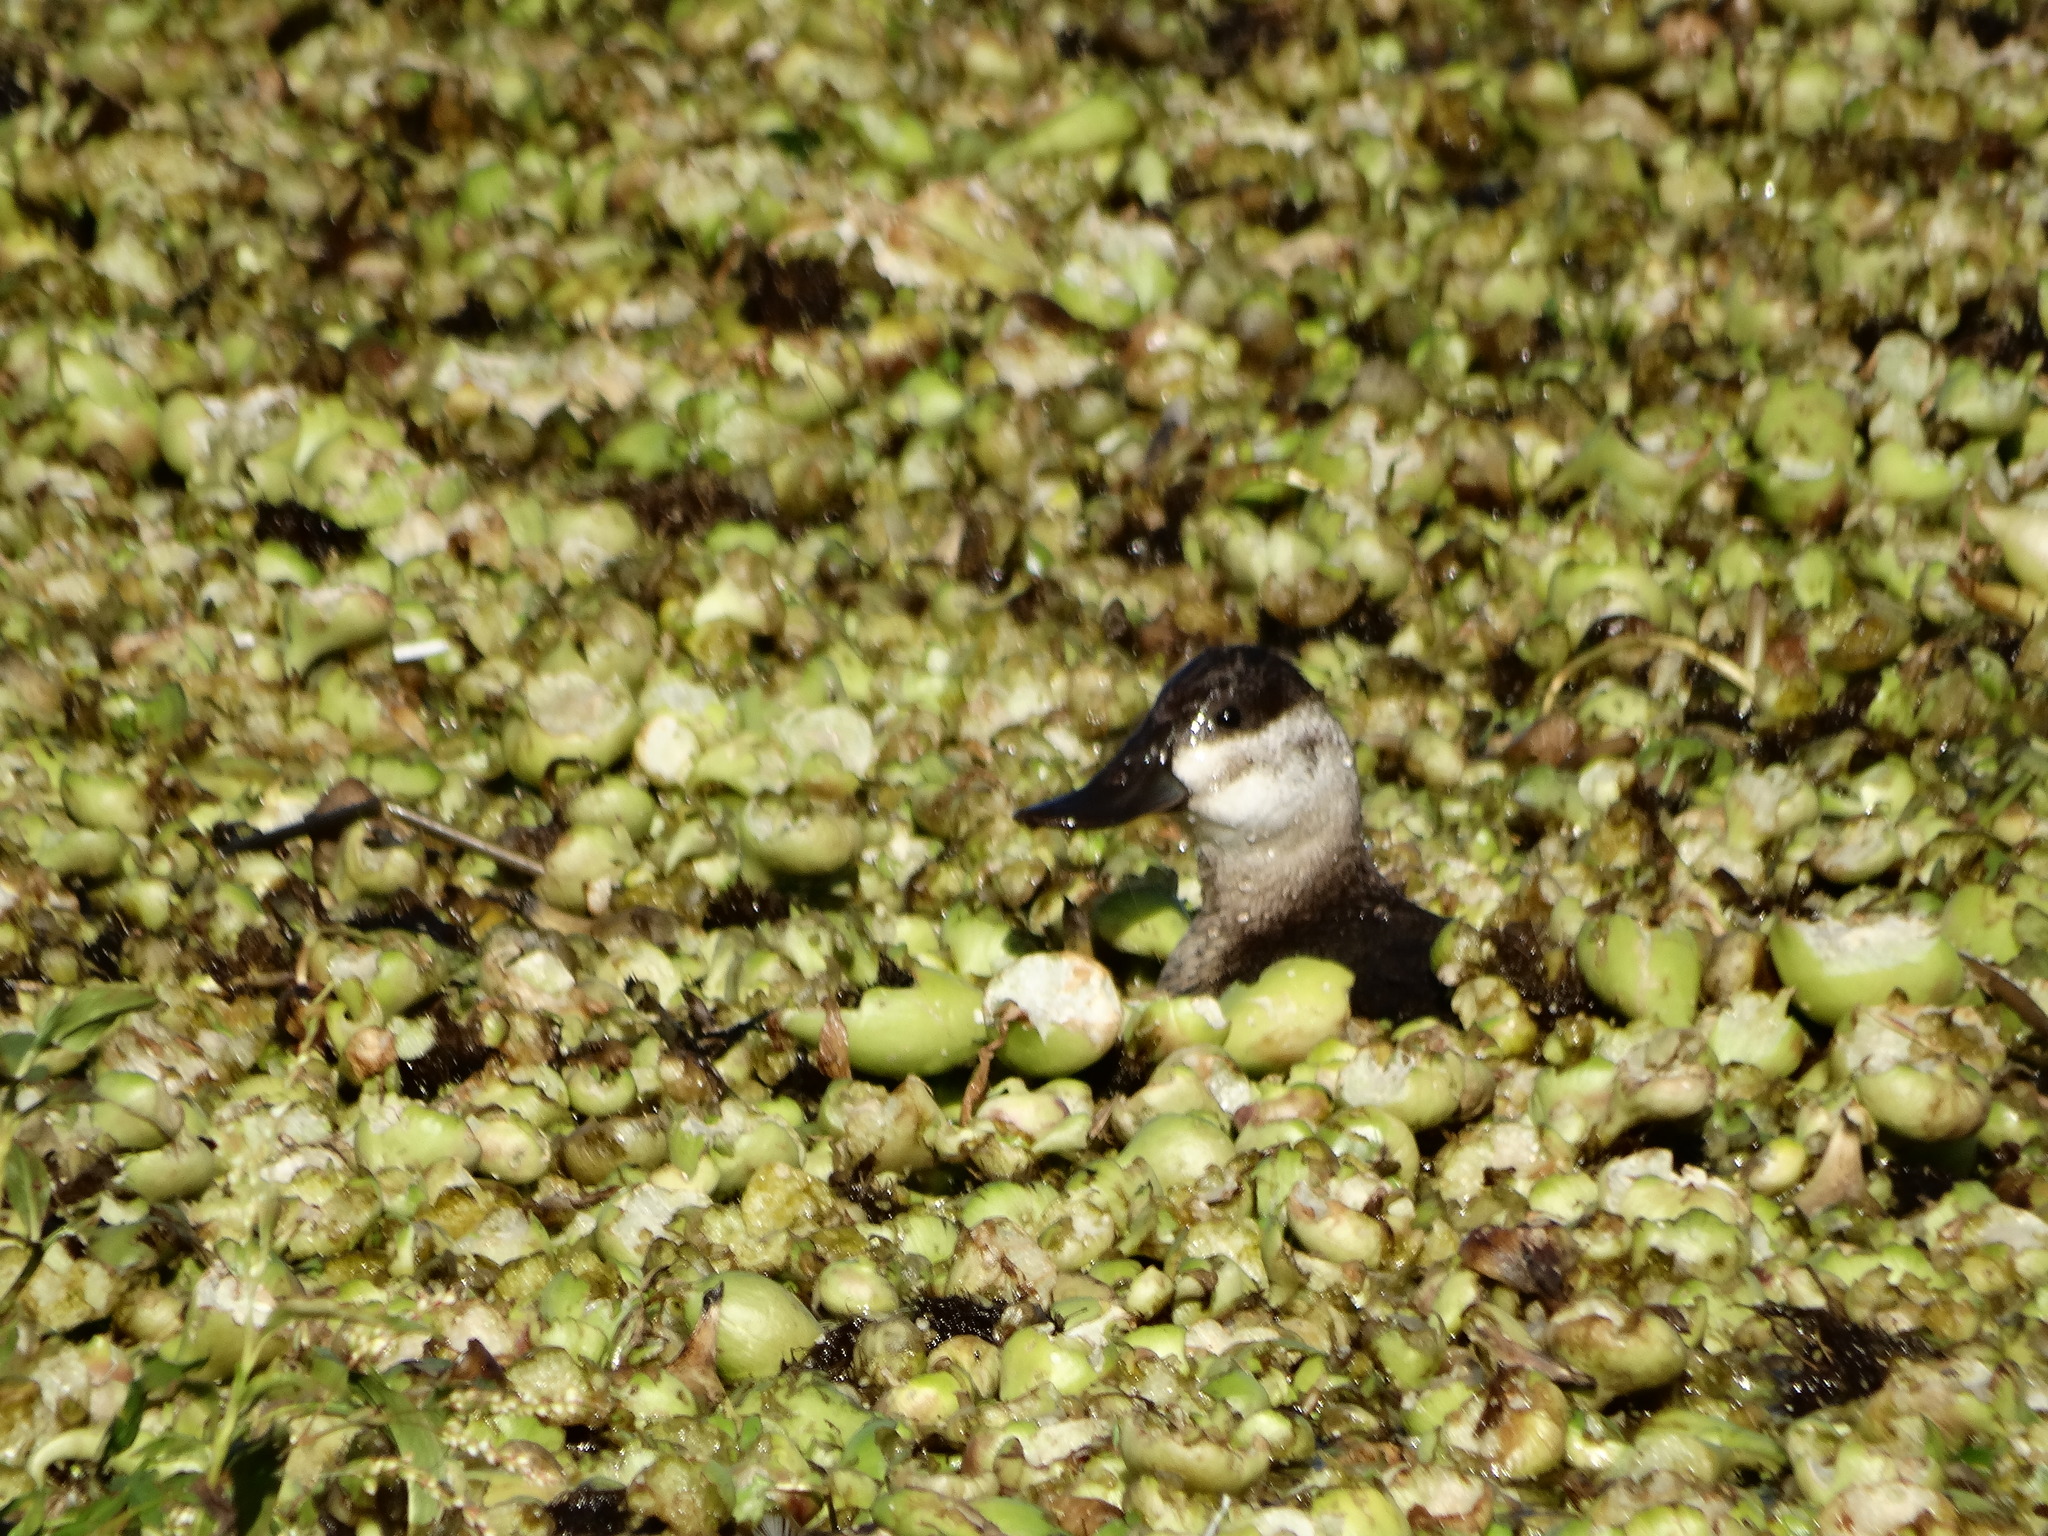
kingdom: Animalia
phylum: Chordata
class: Aves
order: Anseriformes
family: Anatidae
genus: Oxyura
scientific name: Oxyura jamaicensis
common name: Ruddy duck
